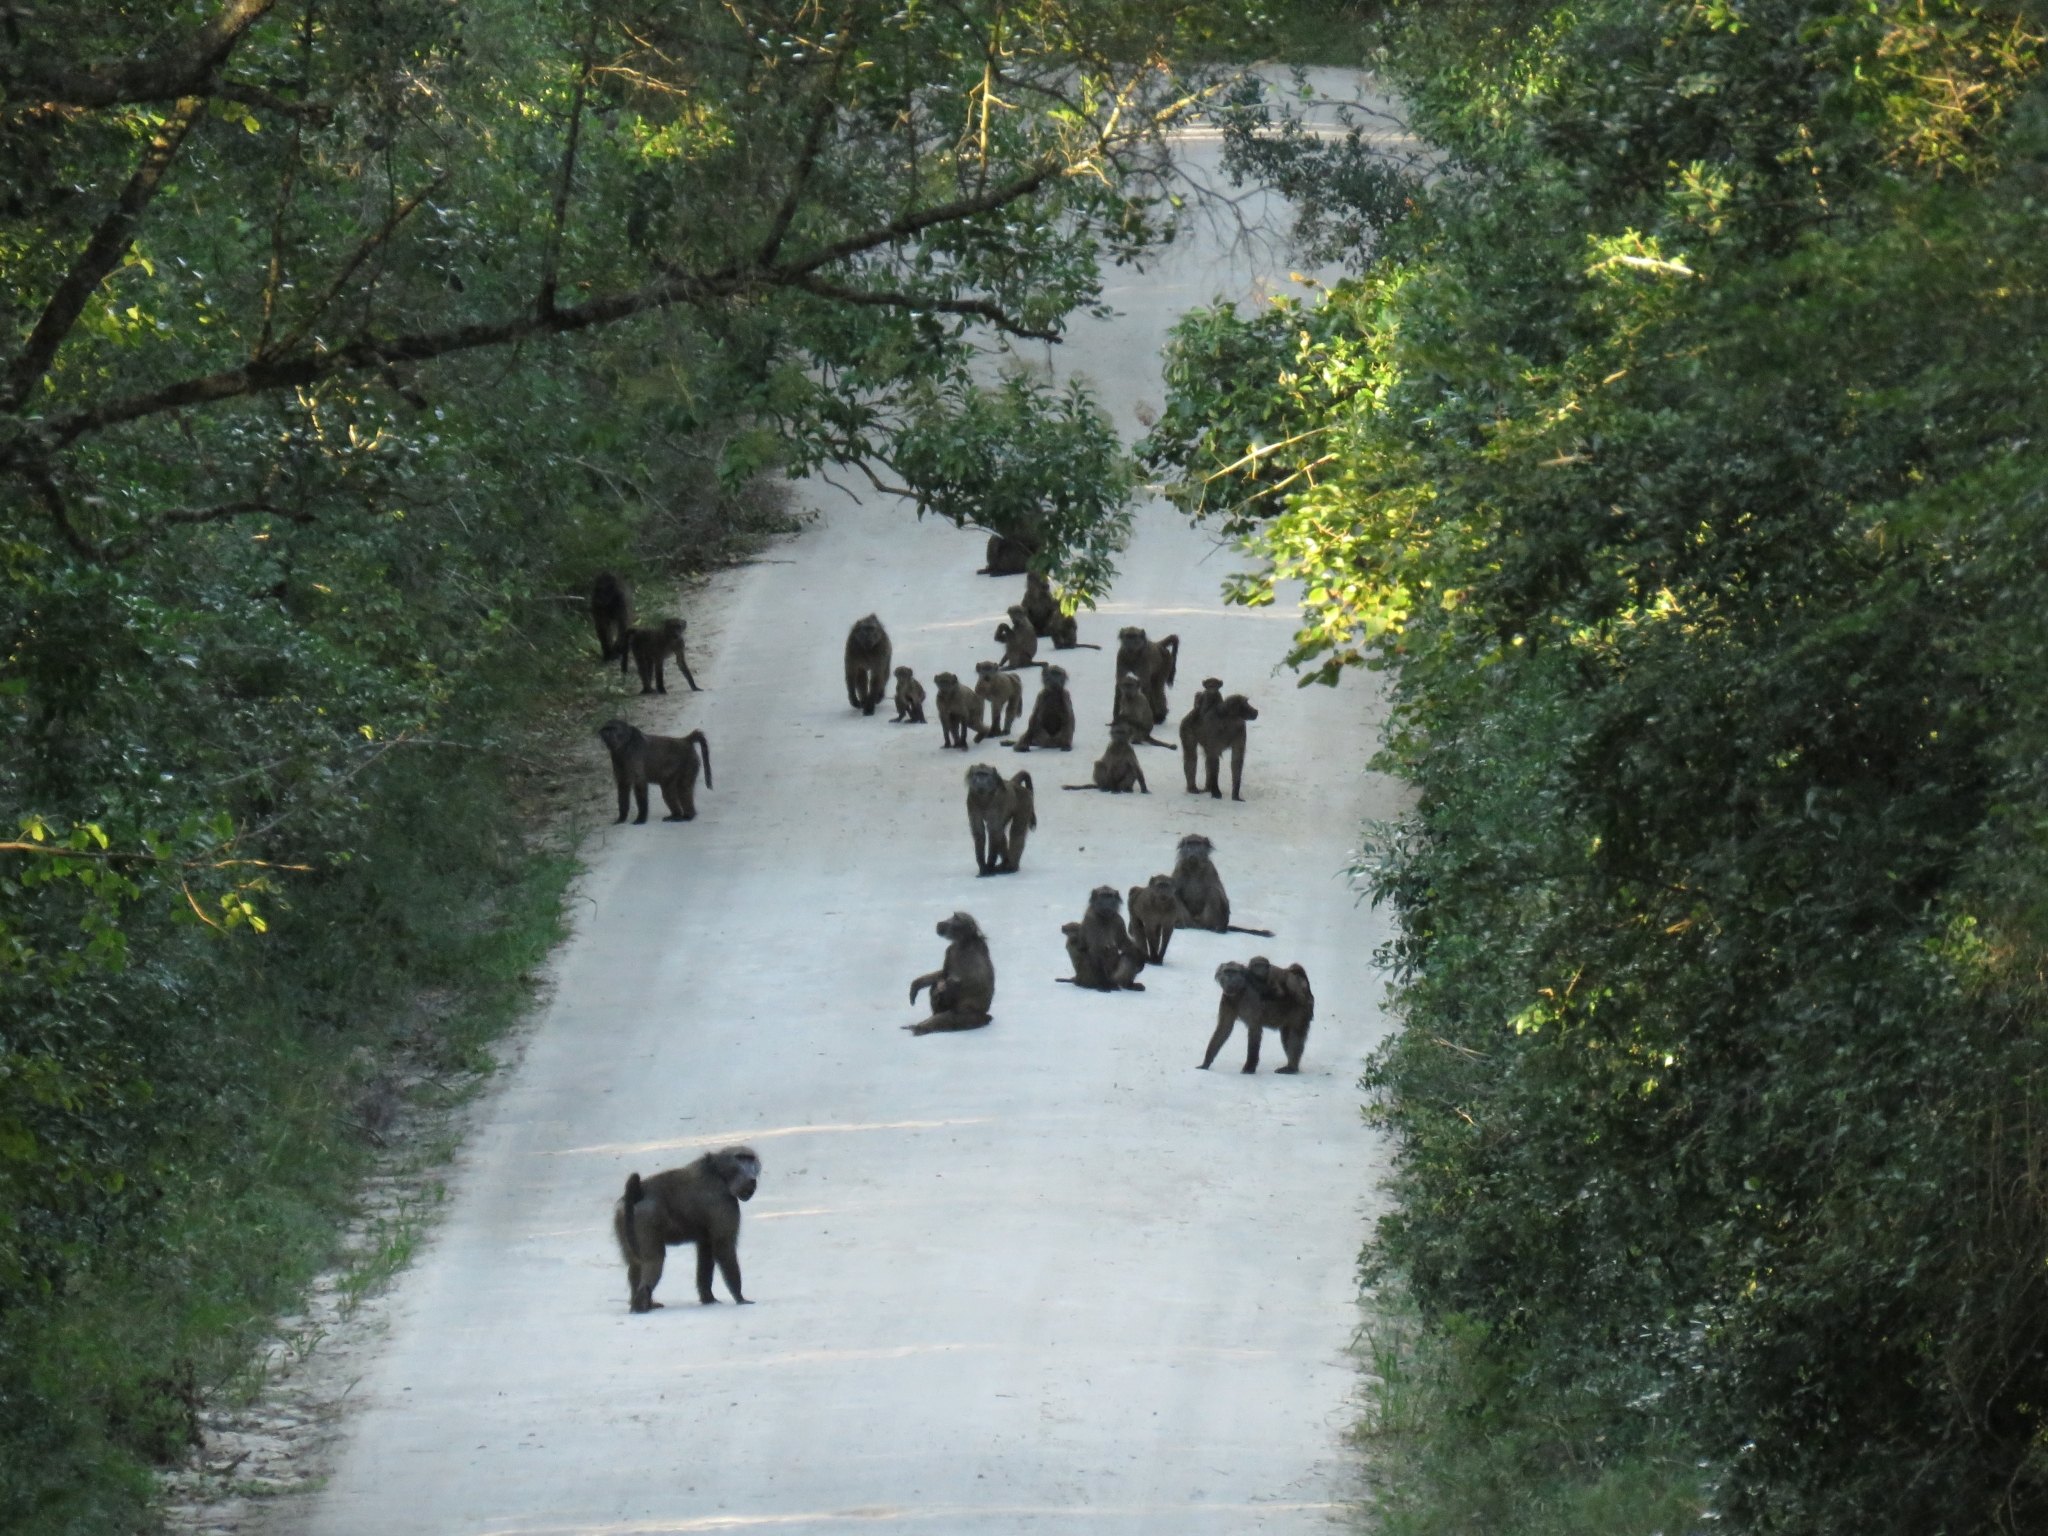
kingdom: Animalia
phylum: Chordata
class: Mammalia
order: Primates
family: Cercopithecidae
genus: Papio
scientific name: Papio ursinus
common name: Chacma baboon
